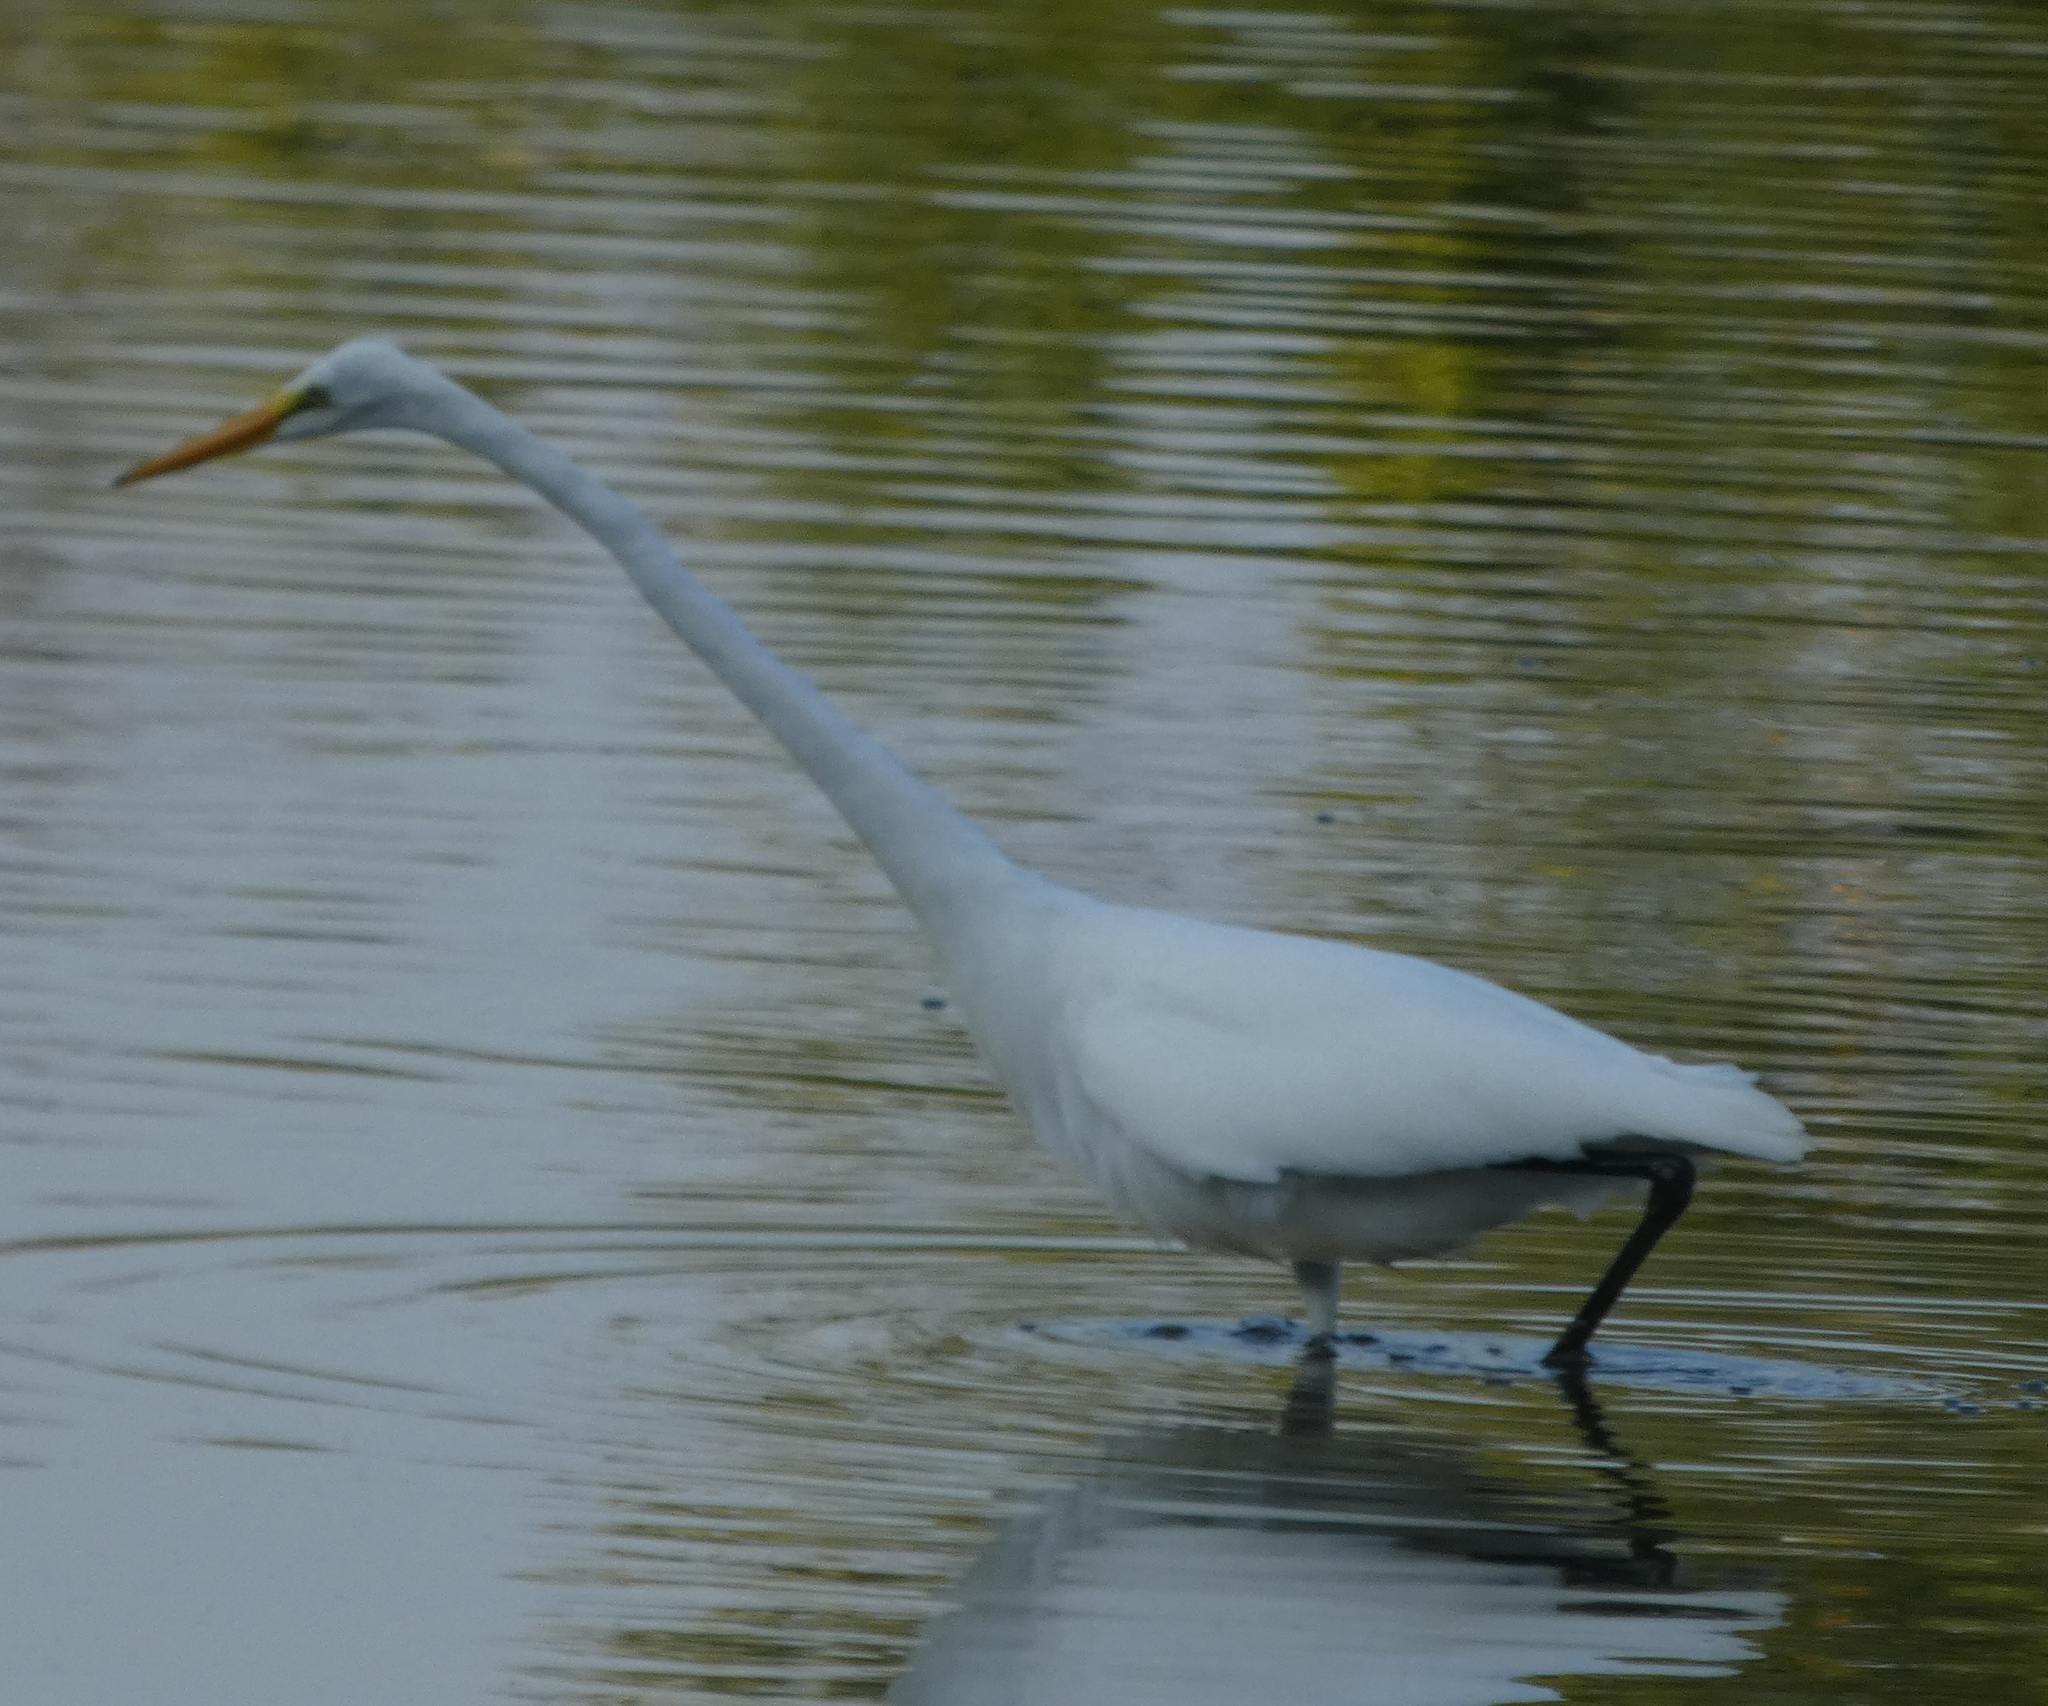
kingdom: Animalia
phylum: Chordata
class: Aves
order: Pelecaniformes
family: Ardeidae
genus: Ardea
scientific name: Ardea alba
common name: Great egret
